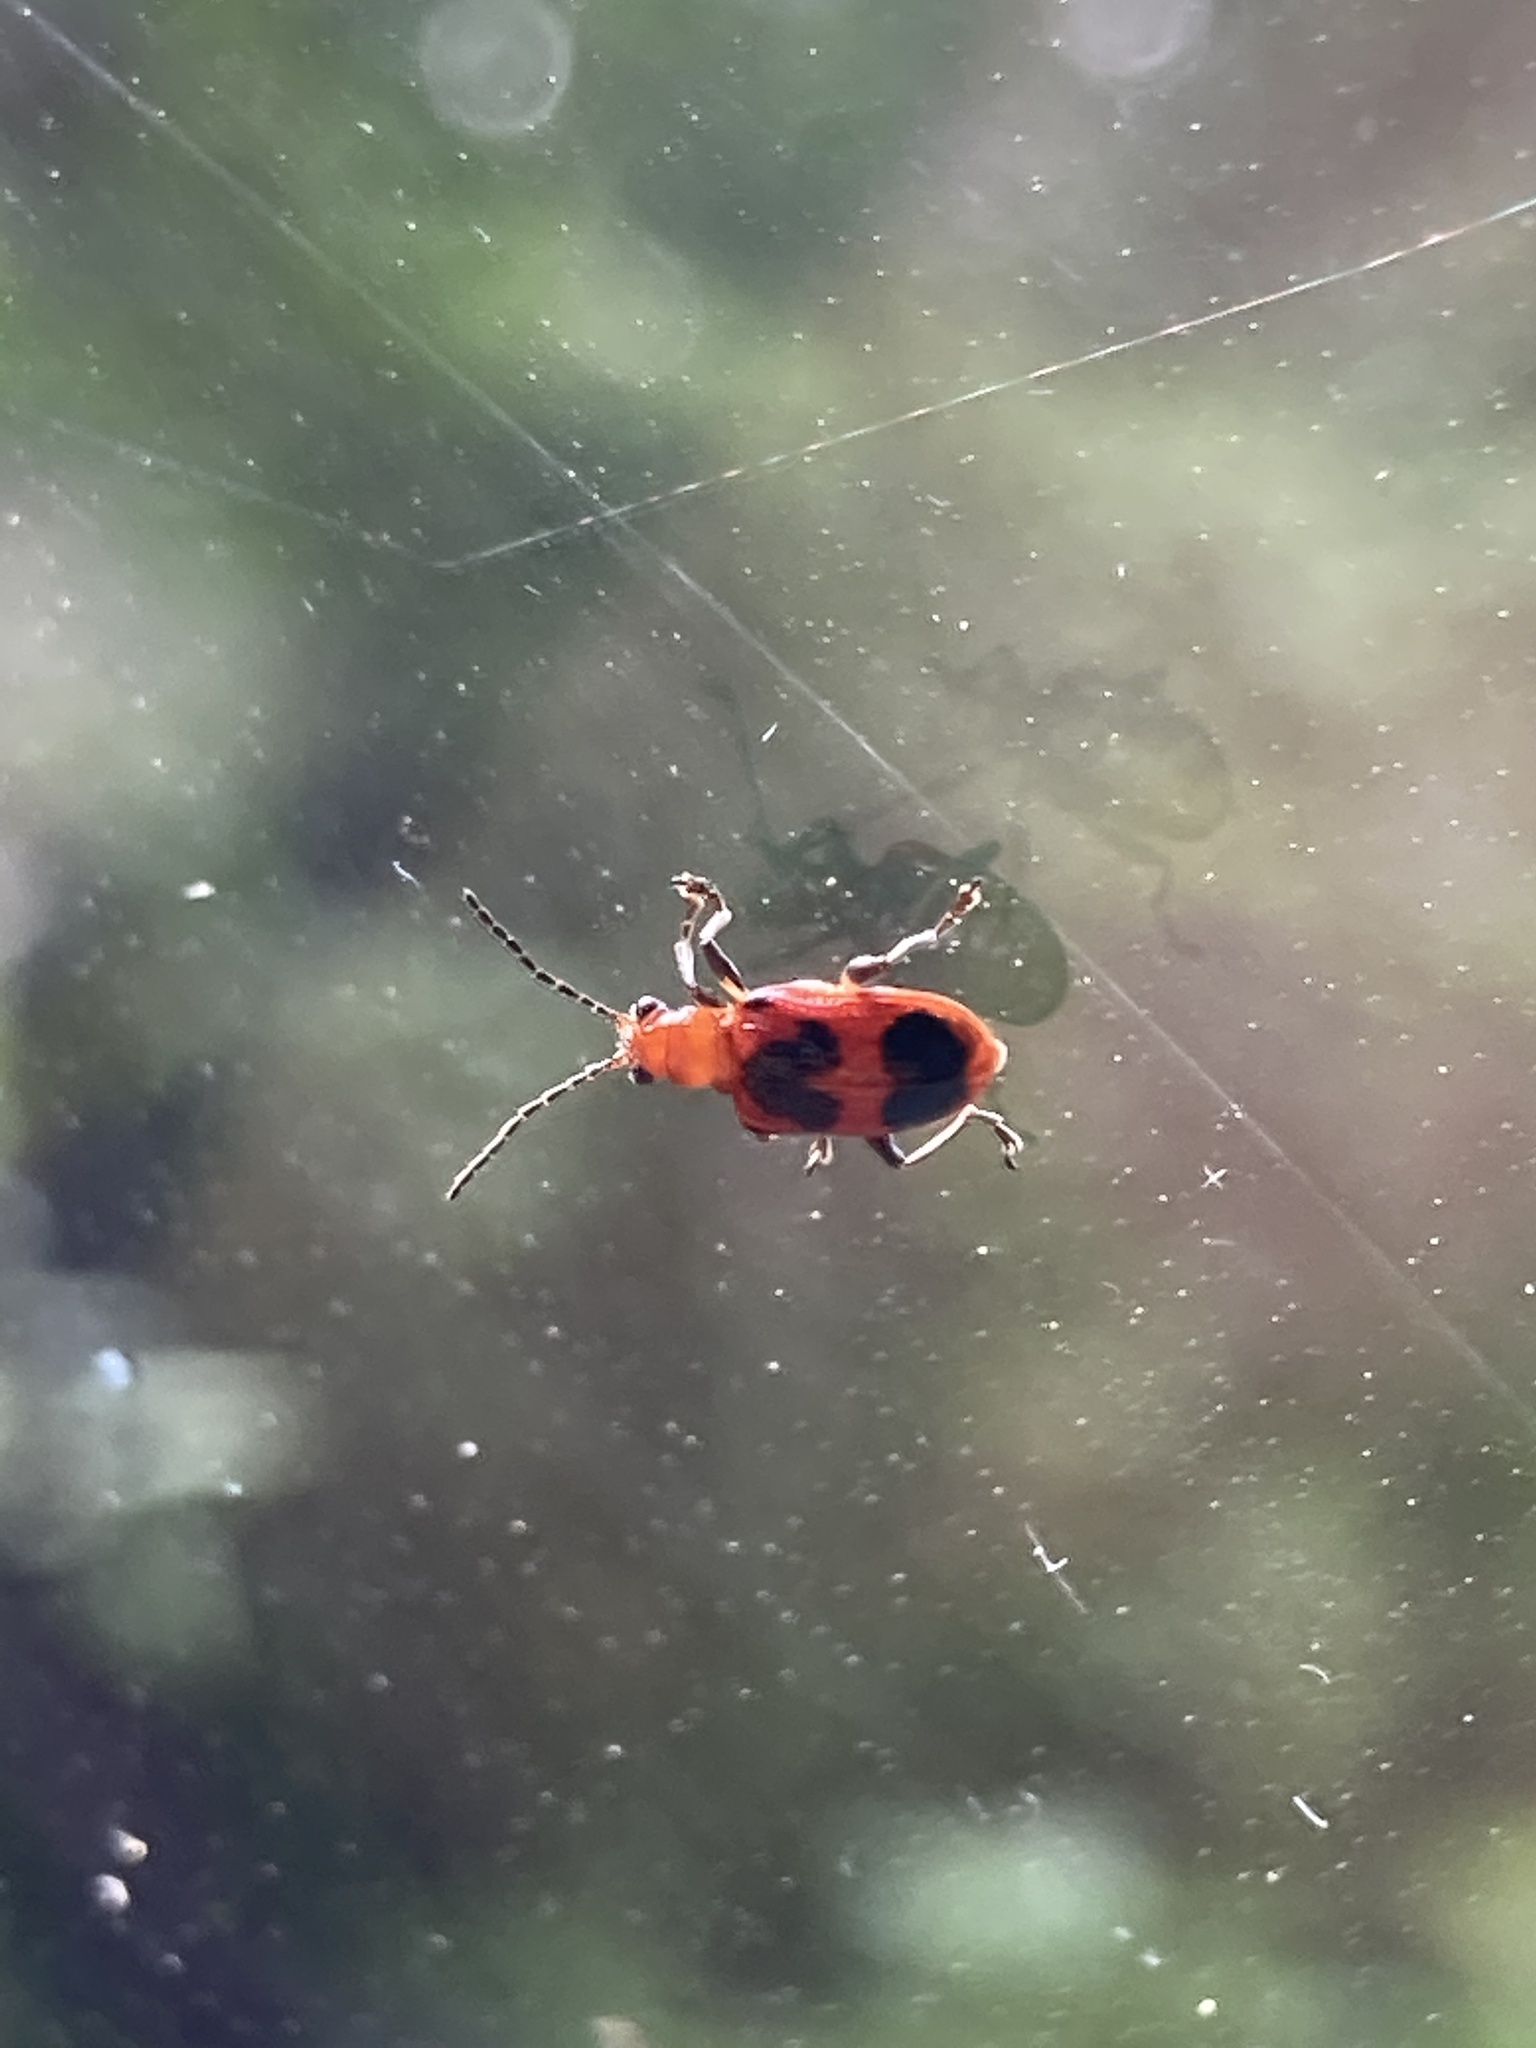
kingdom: Animalia
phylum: Arthropoda
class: Insecta
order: Coleoptera
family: Chrysomelidae
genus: Neolema
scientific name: Neolema cordata
